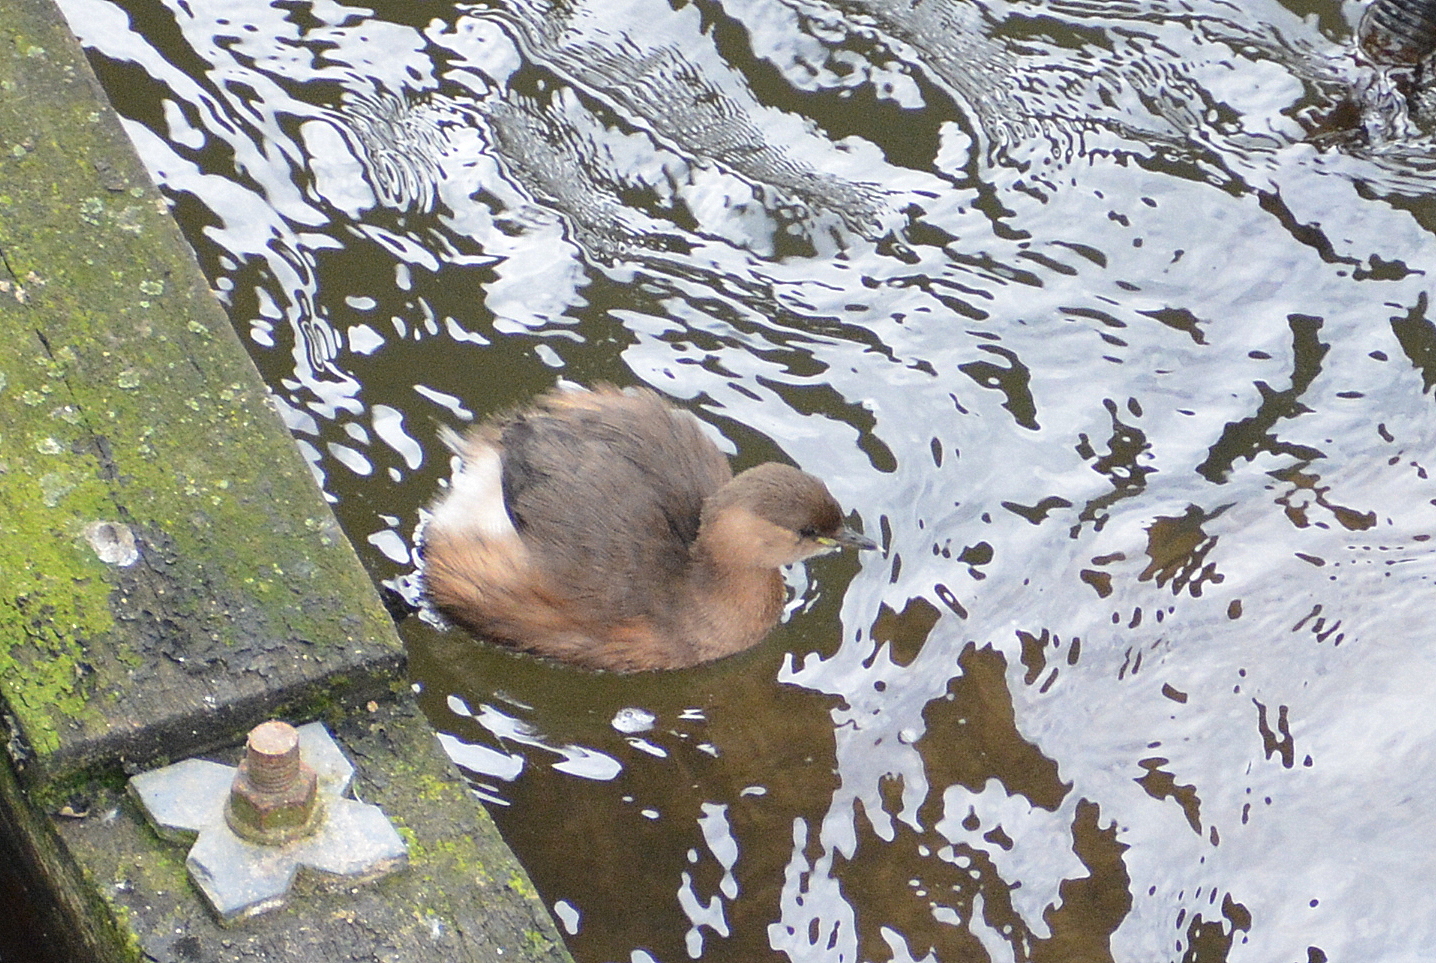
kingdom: Animalia
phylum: Chordata
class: Aves
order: Podicipediformes
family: Podicipedidae
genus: Tachybaptus
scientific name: Tachybaptus ruficollis
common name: Little grebe
